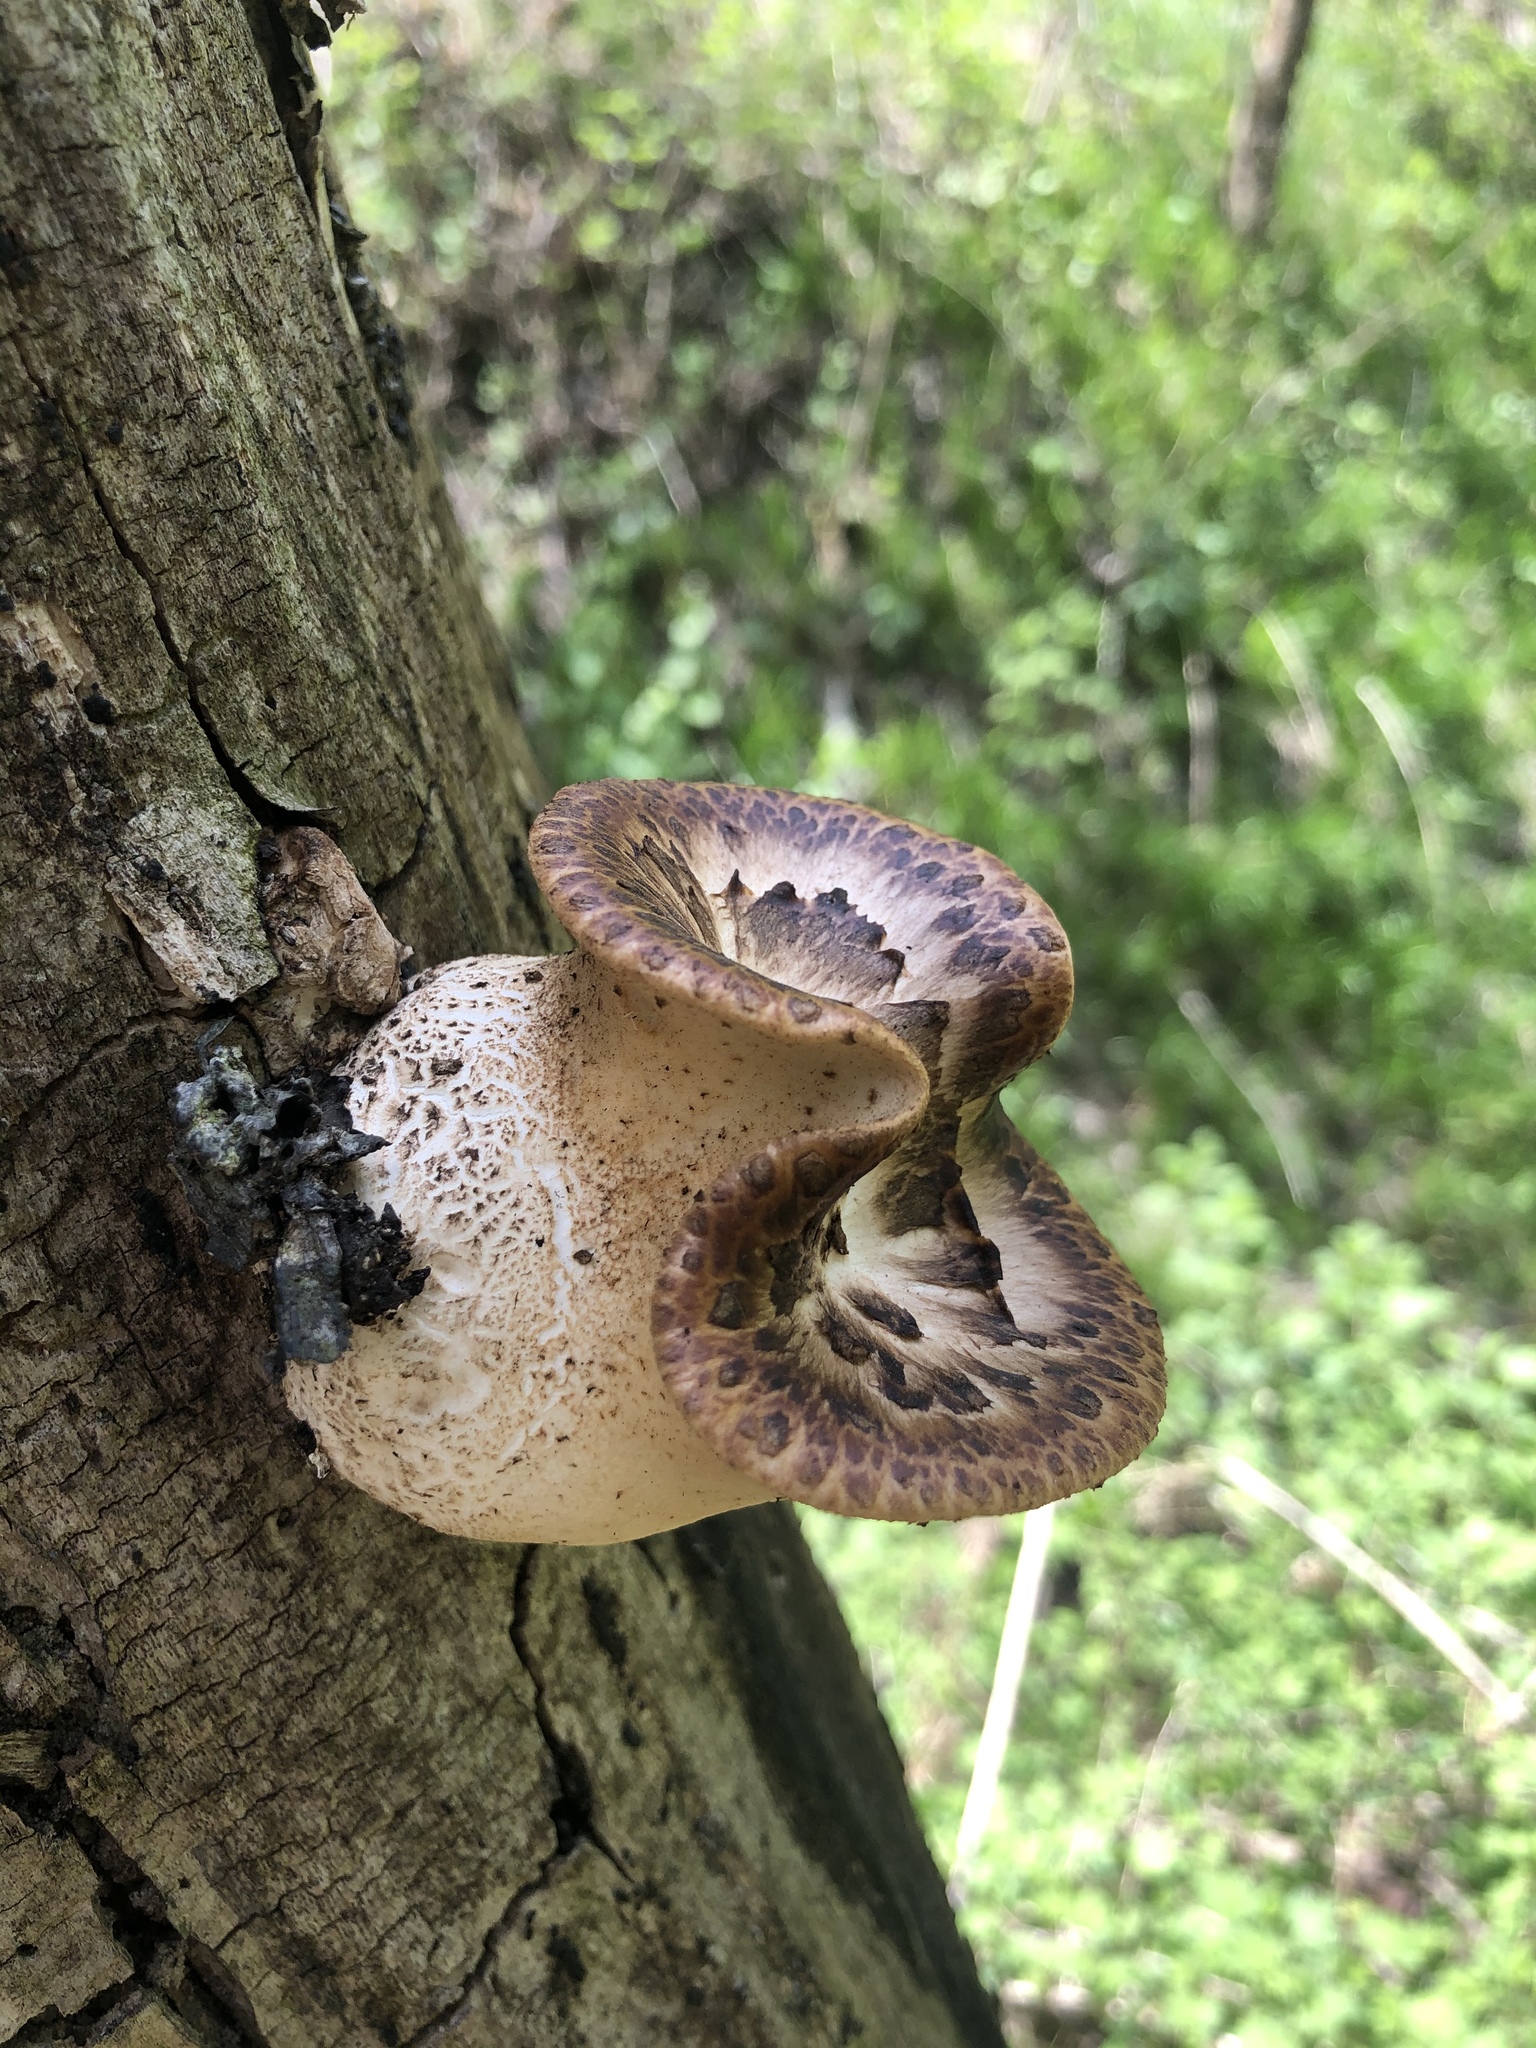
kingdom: Fungi
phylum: Basidiomycota
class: Agaricomycetes
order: Polyporales
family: Polyporaceae
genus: Cerioporus
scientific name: Cerioporus squamosus
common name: Dryad's saddle
